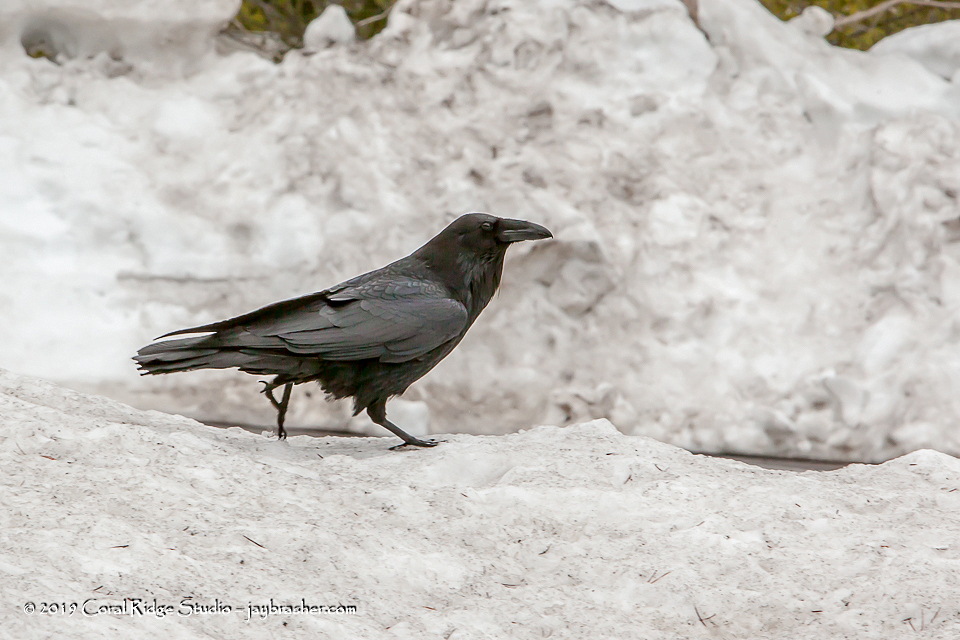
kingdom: Animalia
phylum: Chordata
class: Aves
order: Passeriformes
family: Corvidae
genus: Corvus
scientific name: Corvus corax
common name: Common raven
